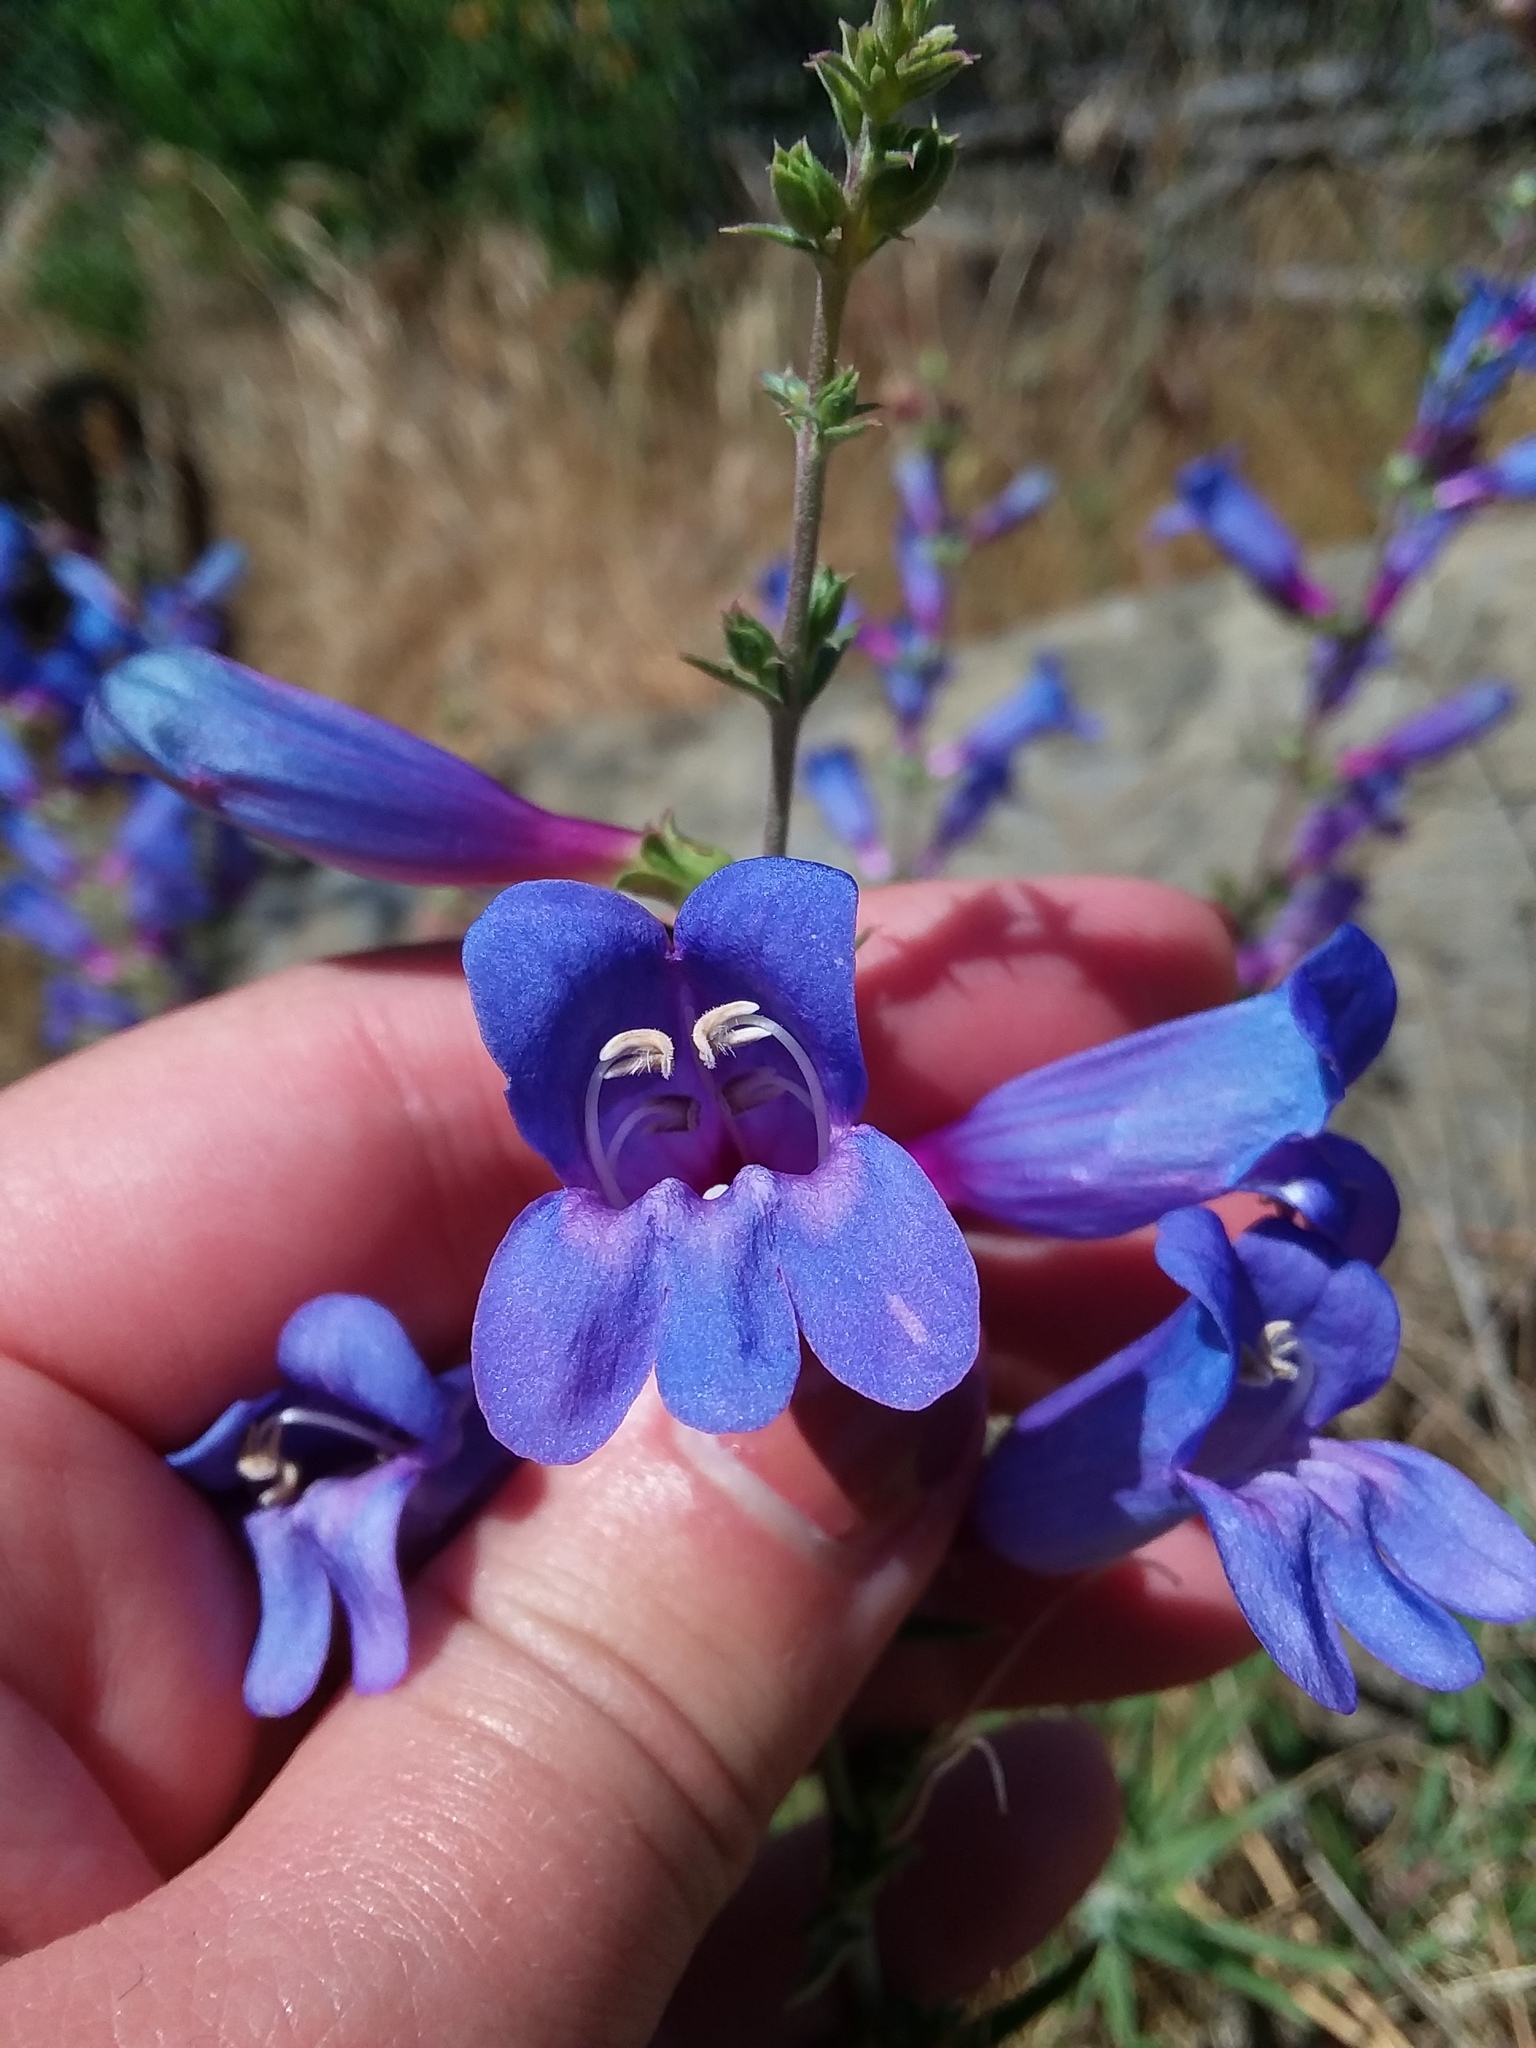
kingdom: Plantae
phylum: Tracheophyta
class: Magnoliopsida
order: Lamiales
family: Plantaginaceae
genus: Penstemon
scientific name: Penstemon heterophyllus
